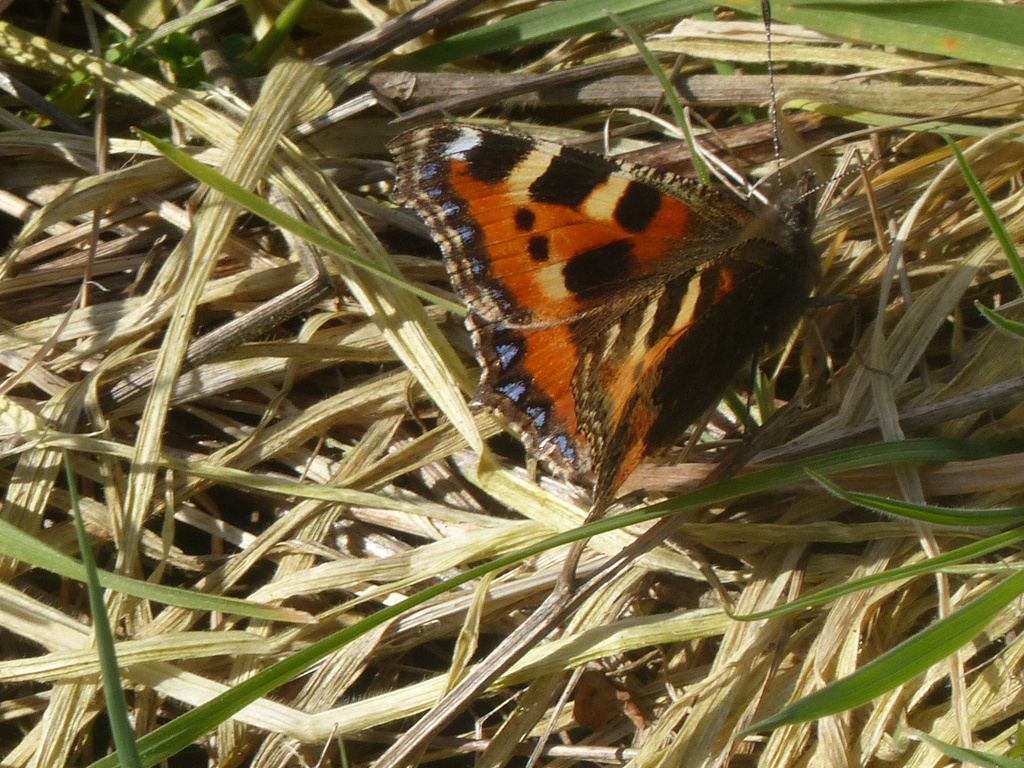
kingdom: Animalia
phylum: Arthropoda
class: Insecta
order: Lepidoptera
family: Nymphalidae
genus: Aglais
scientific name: Aglais urticae
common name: Small tortoiseshell
